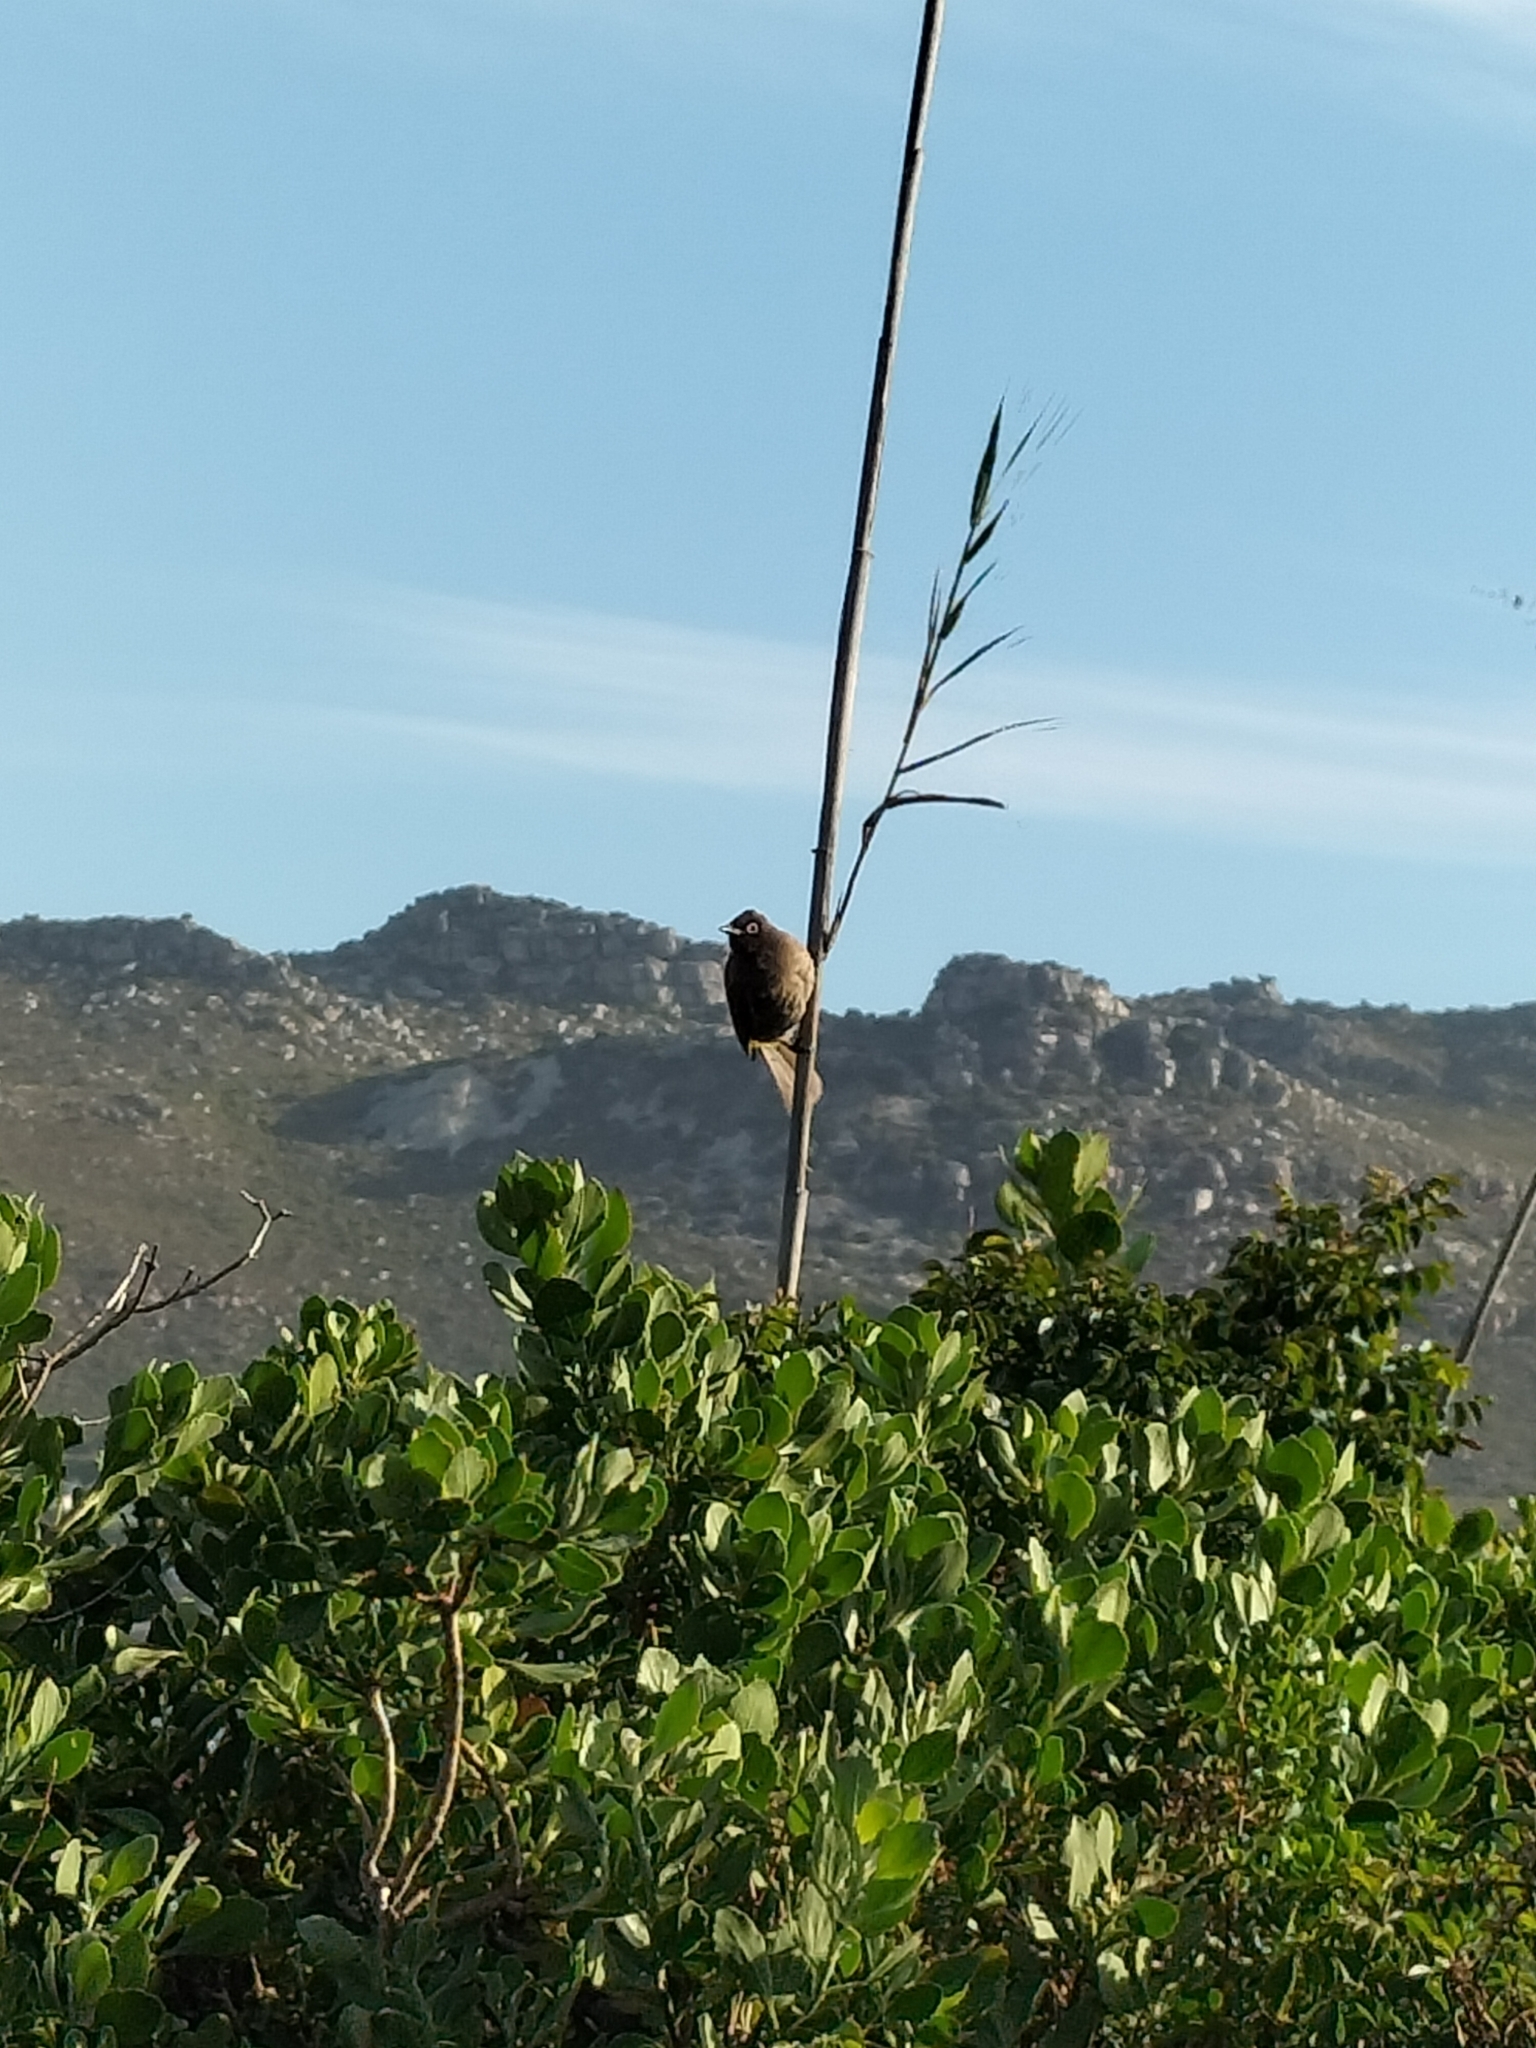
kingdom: Animalia
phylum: Chordata
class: Aves
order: Passeriformes
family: Pycnonotidae
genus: Pycnonotus
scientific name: Pycnonotus capensis
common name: Cape bulbul
